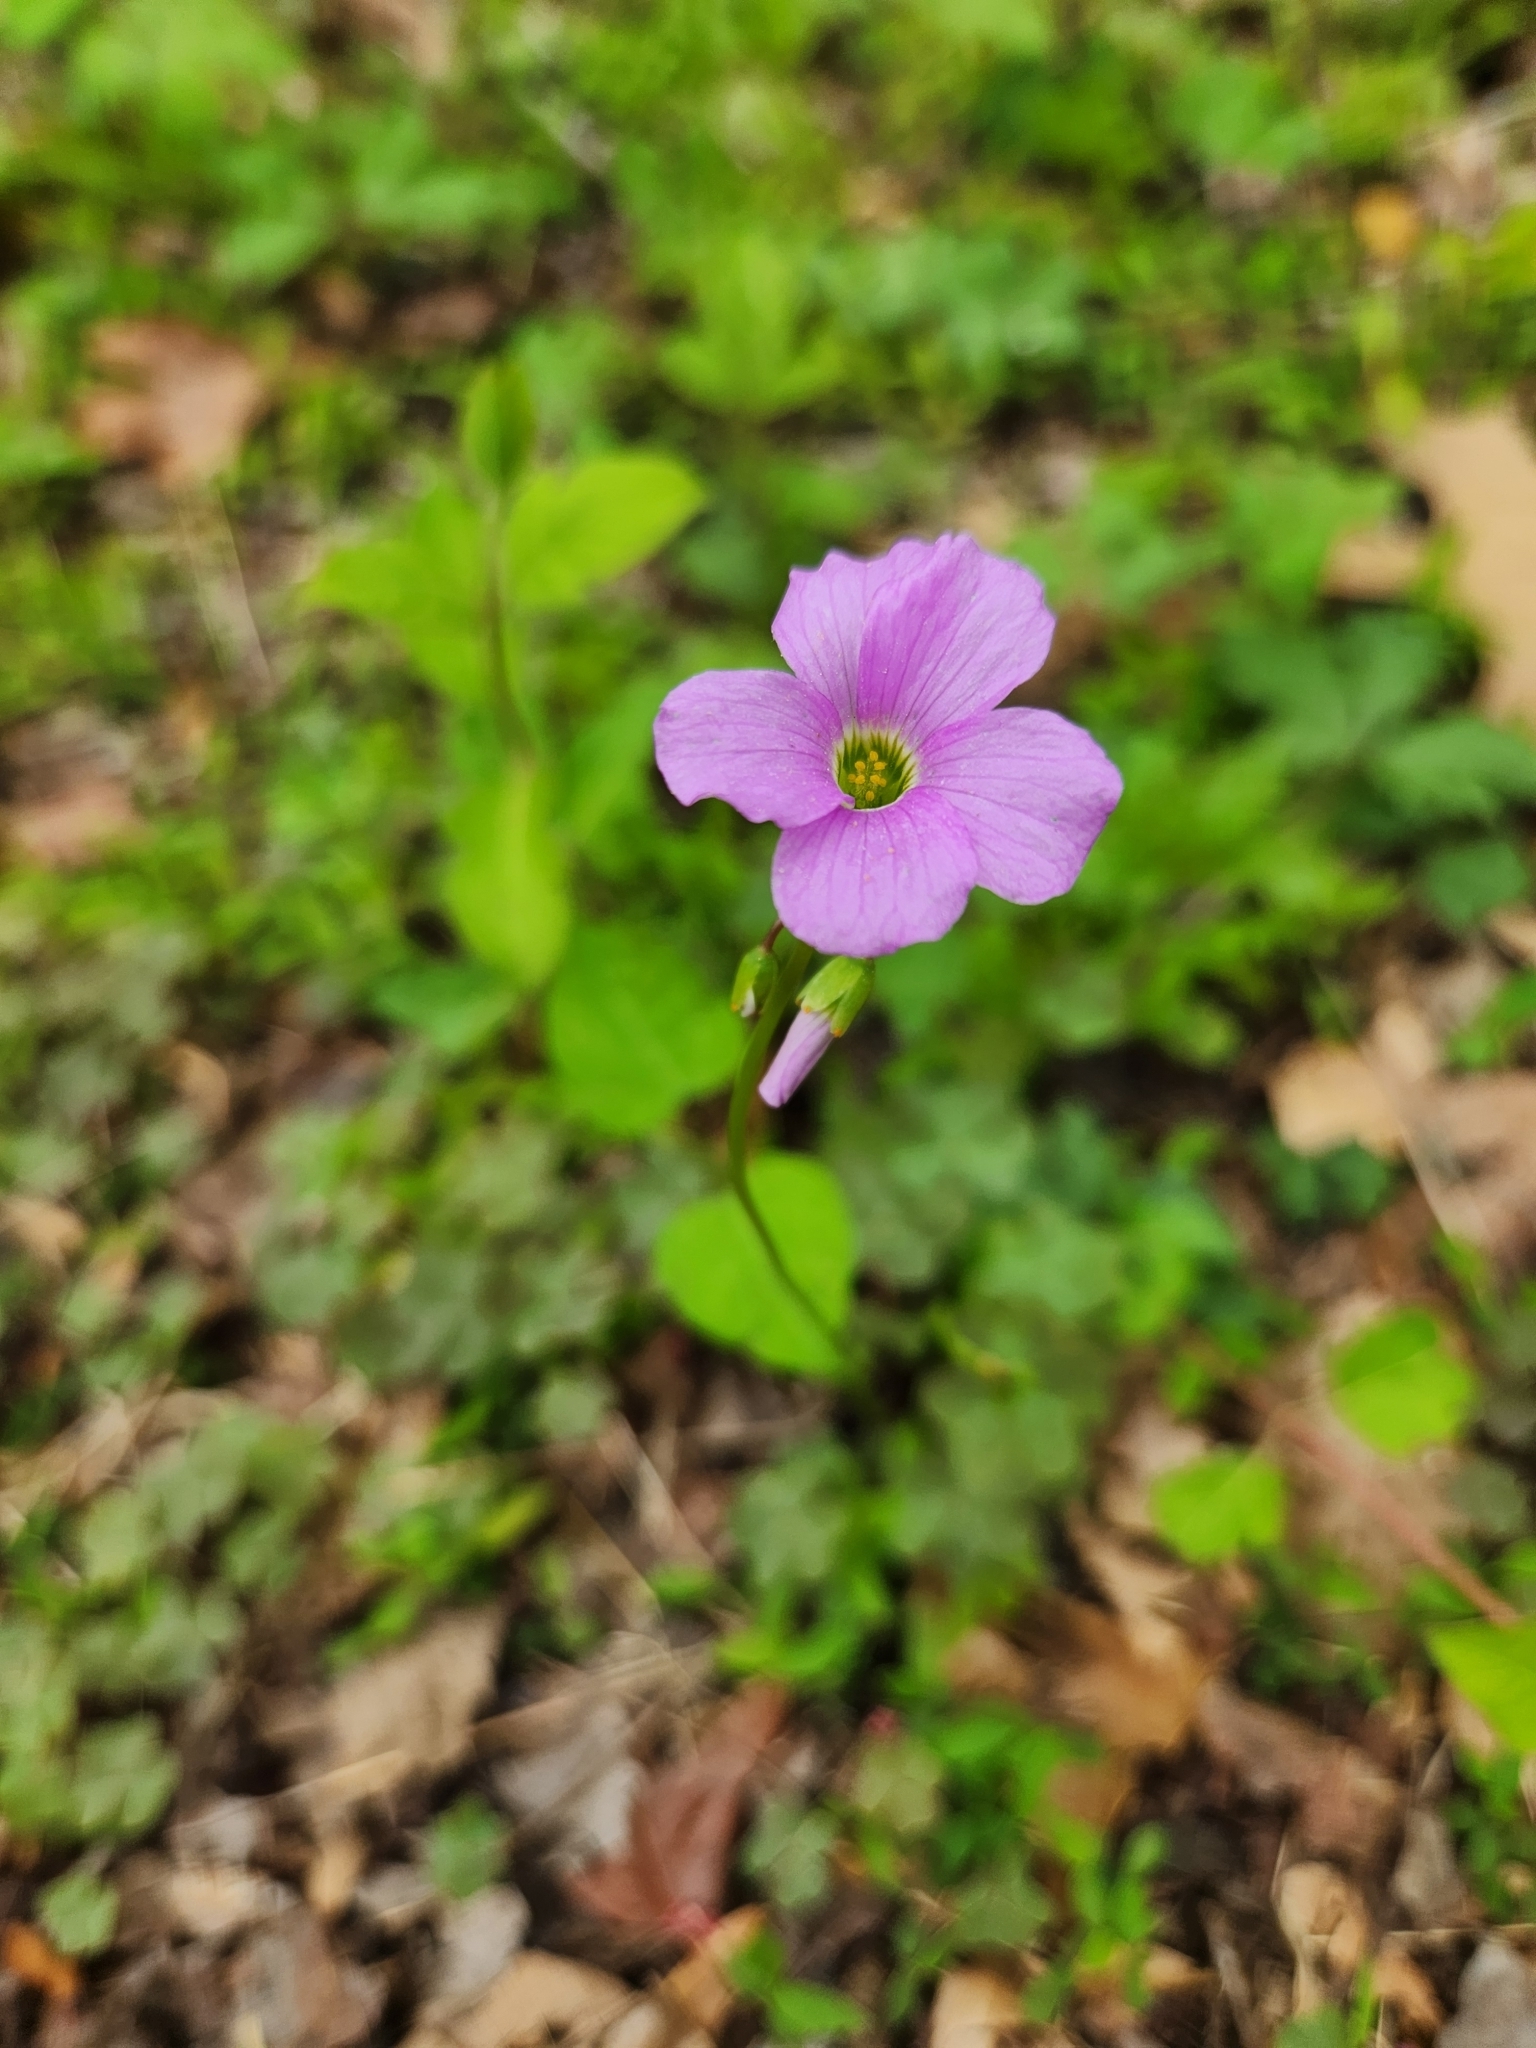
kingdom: Plantae
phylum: Tracheophyta
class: Magnoliopsida
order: Oxalidales
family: Oxalidaceae
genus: Oxalis
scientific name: Oxalis violacea
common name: Violet wood-sorrel
